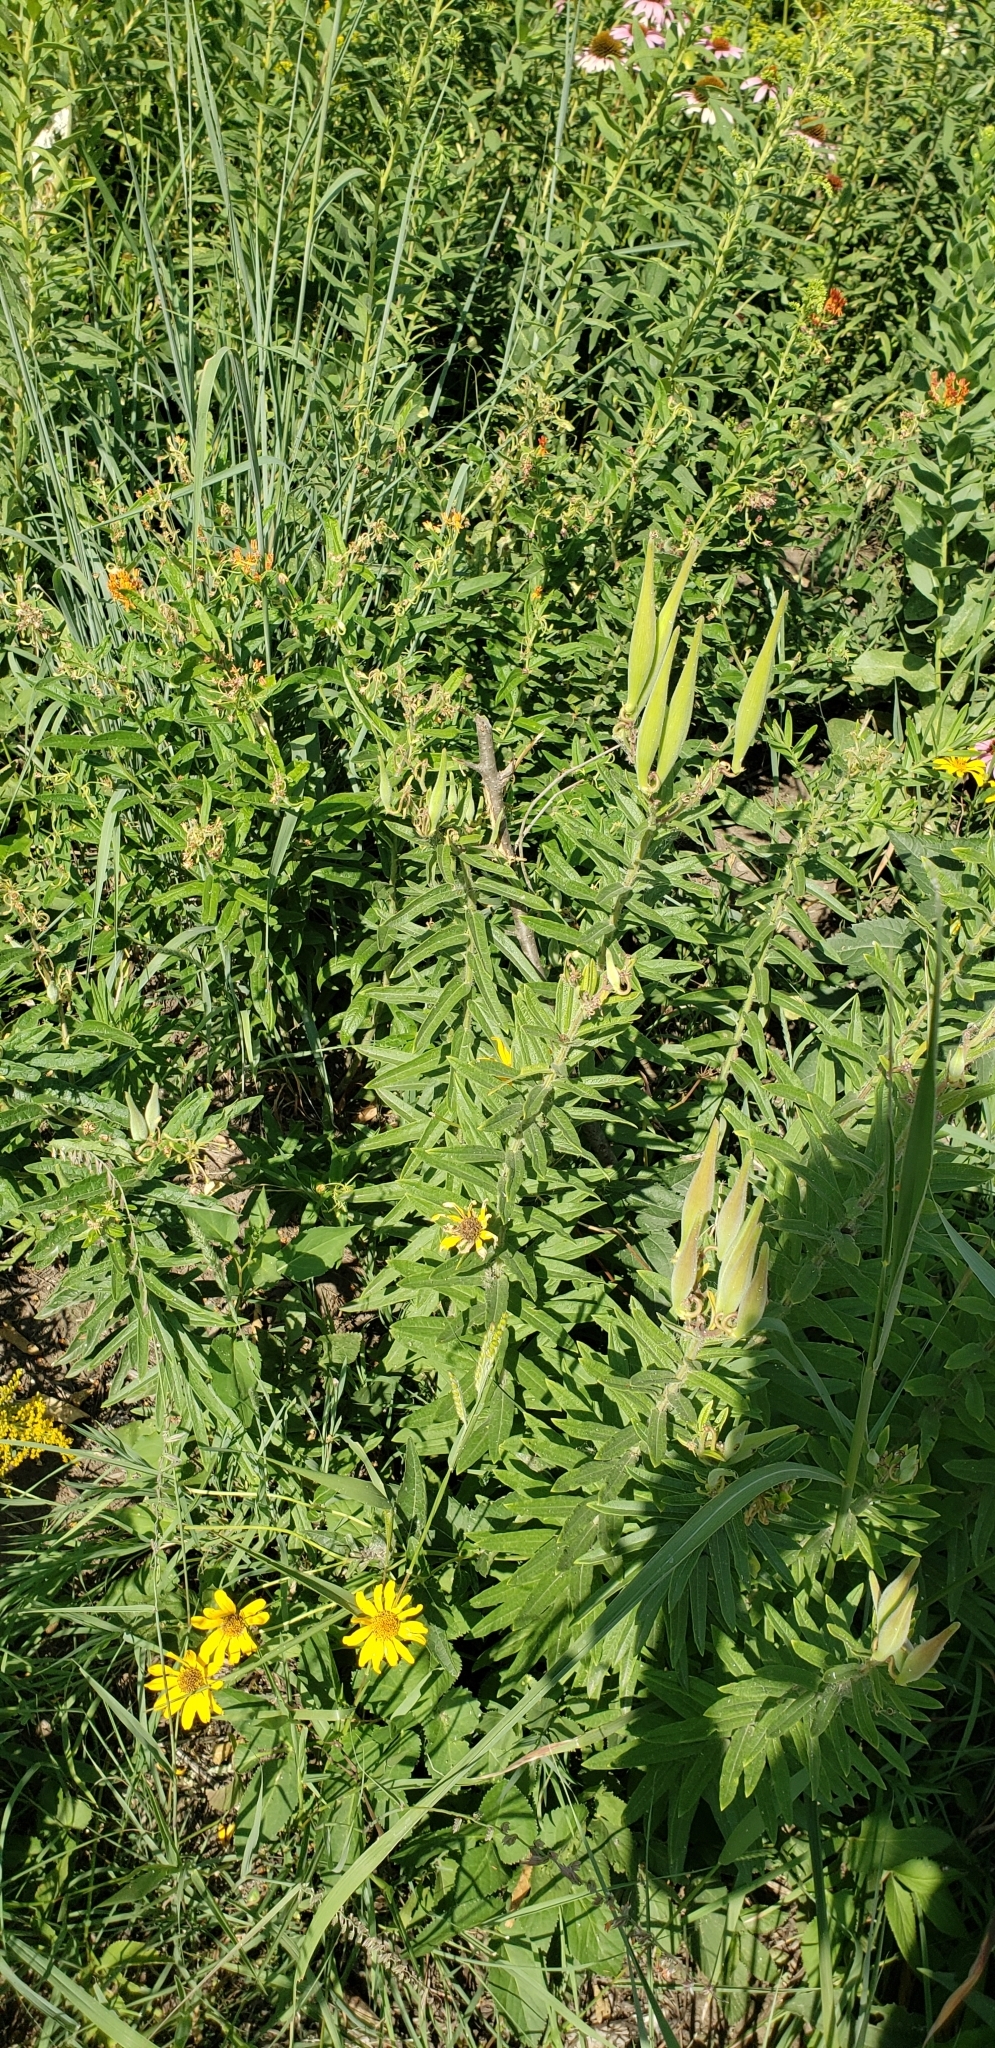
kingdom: Plantae
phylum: Tracheophyta
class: Magnoliopsida
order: Gentianales
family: Apocynaceae
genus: Asclepias
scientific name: Asclepias tuberosa
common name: Butterfly milkweed
